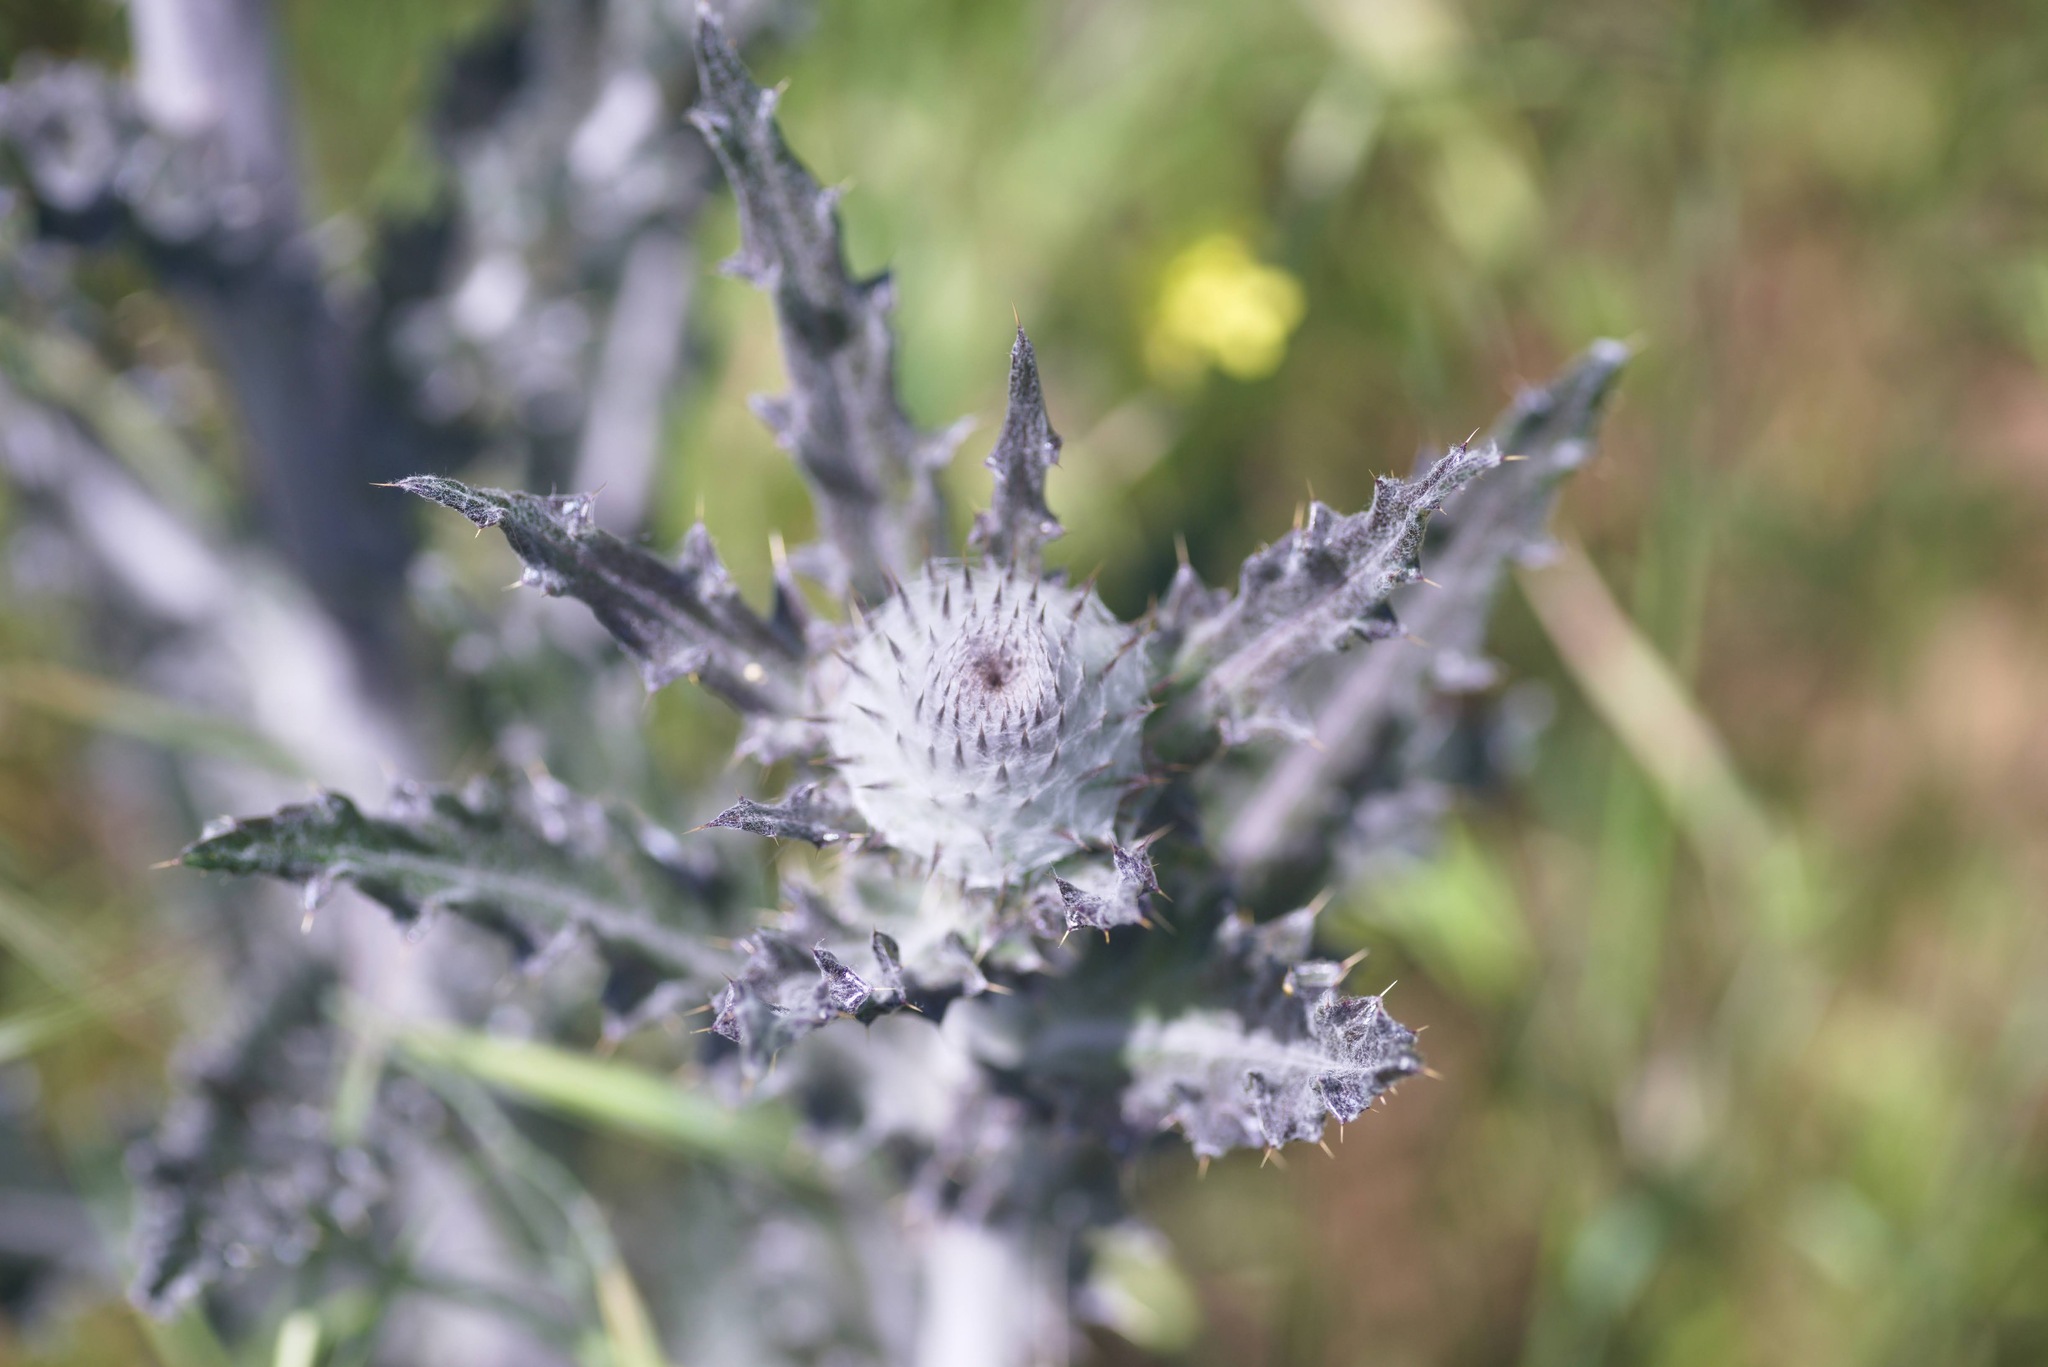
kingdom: Plantae
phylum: Tracheophyta
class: Magnoliopsida
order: Asterales
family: Asteraceae
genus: Cirsium
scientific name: Cirsium occidentale
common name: Western thistle
